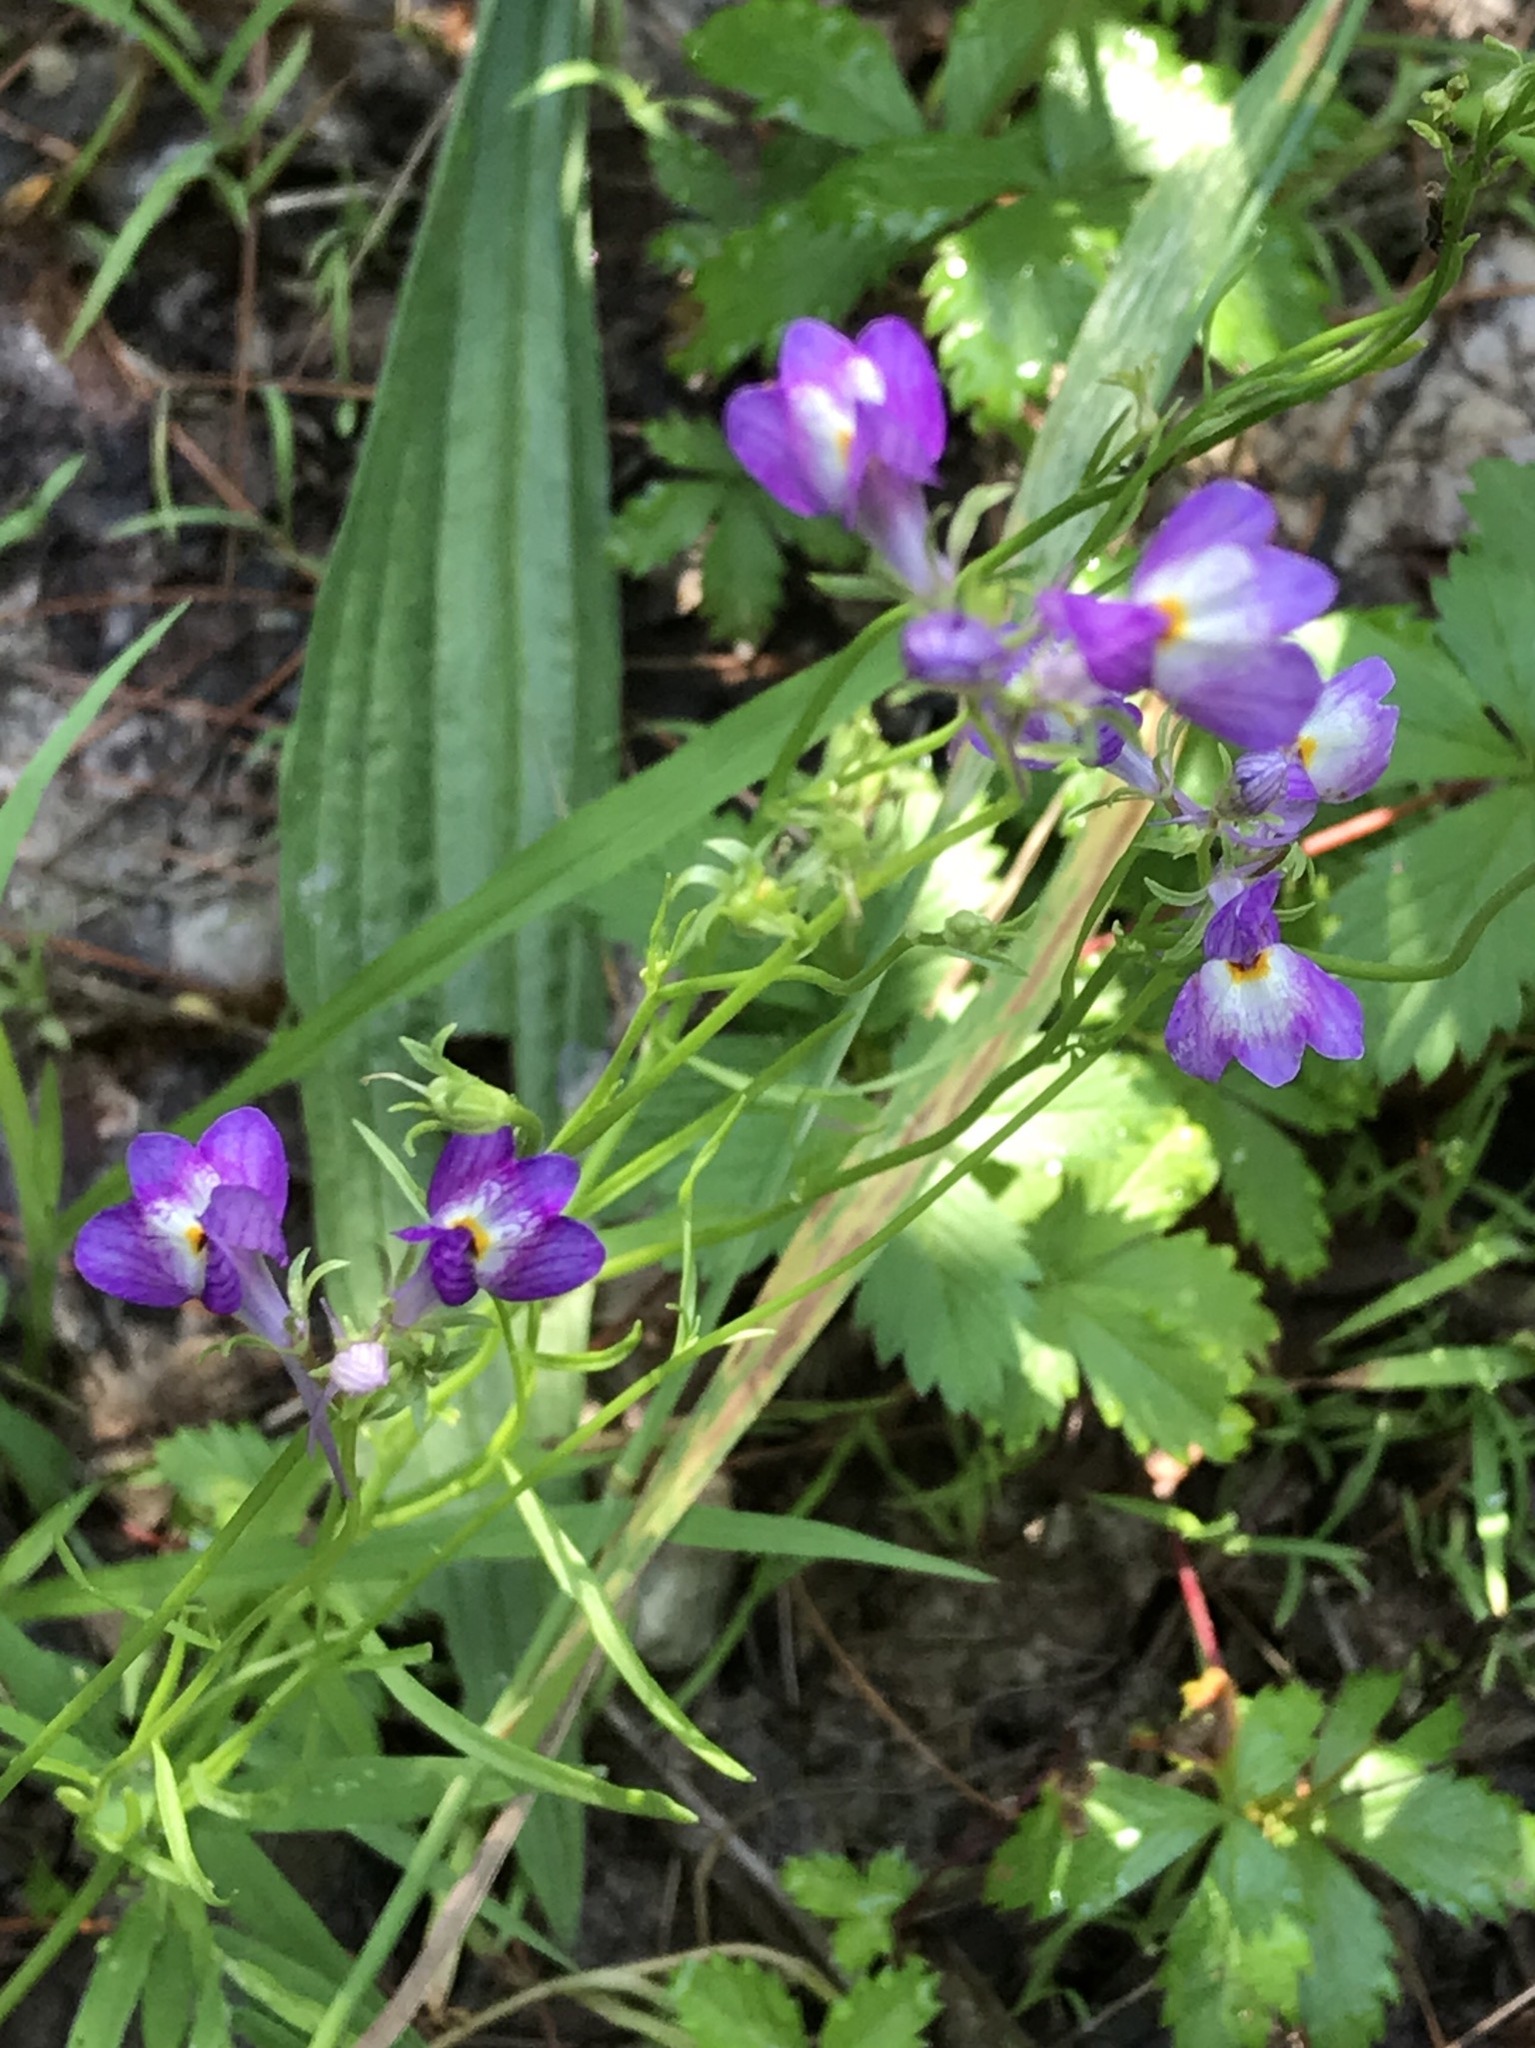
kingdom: Plantae
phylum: Tracheophyta
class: Magnoliopsida
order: Lamiales
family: Plantaginaceae
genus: Linaria
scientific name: Linaria maroccana
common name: Moroccan toadflax
